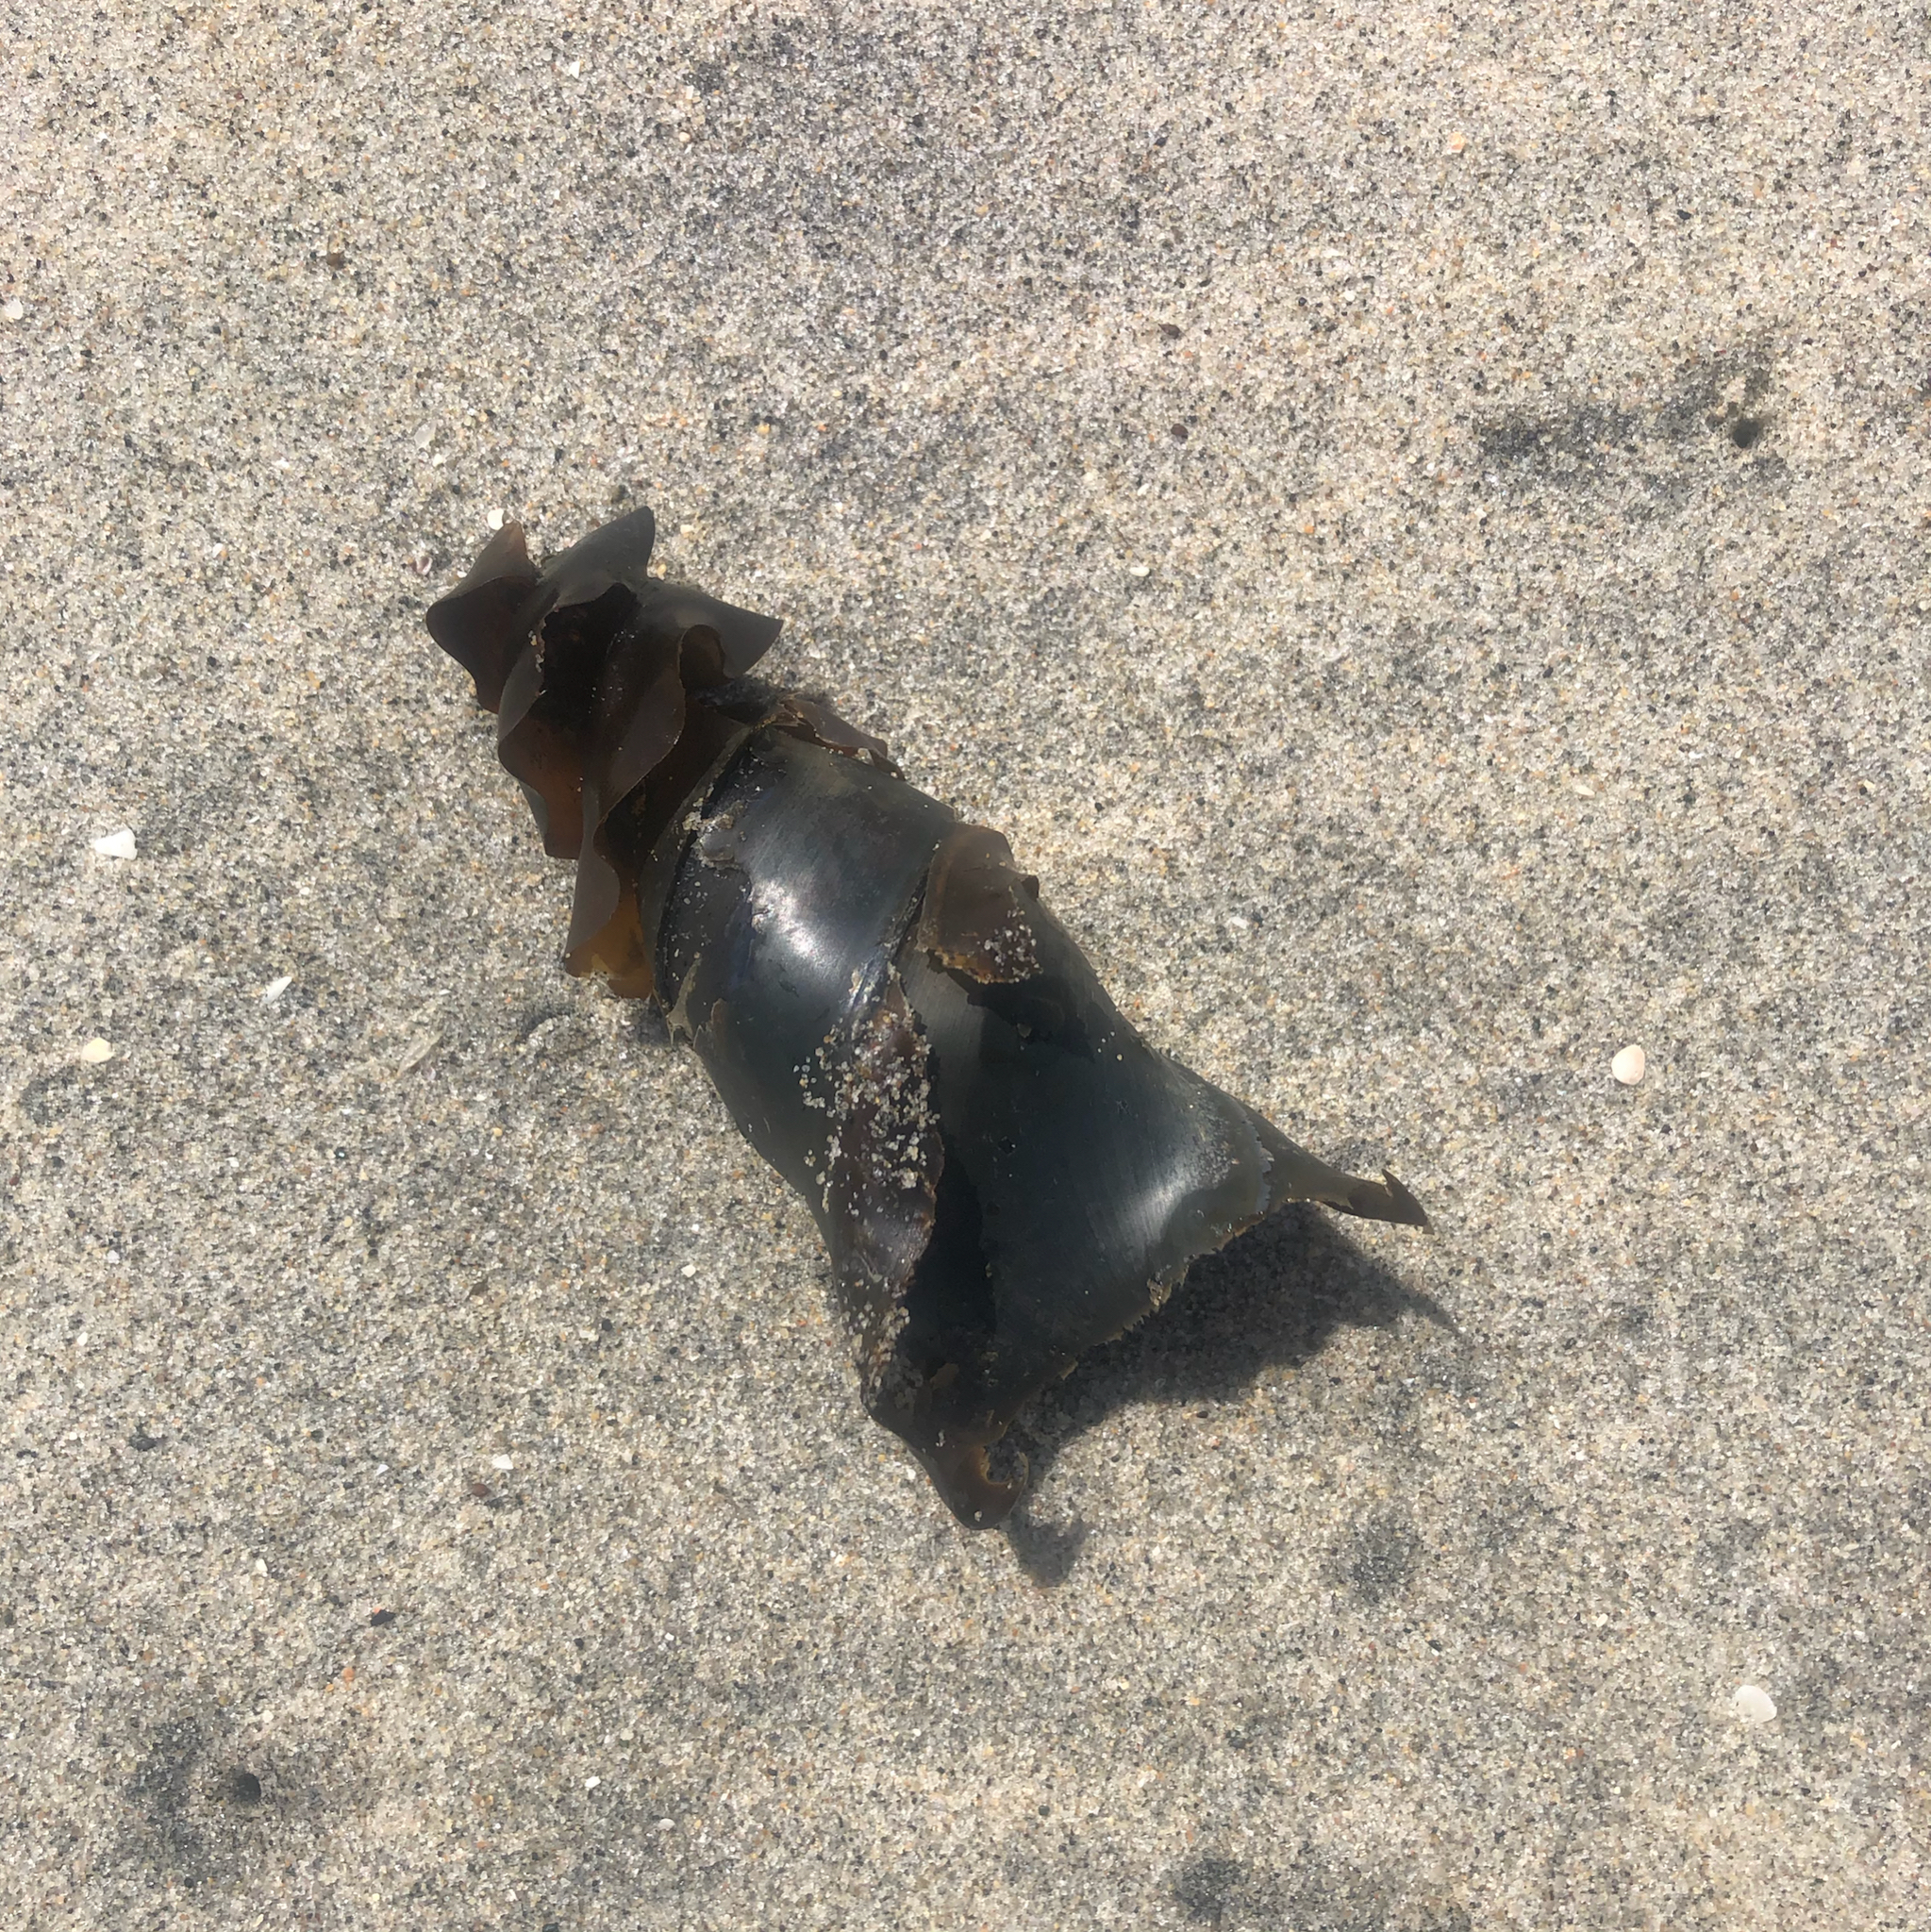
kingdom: Animalia
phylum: Chordata
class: Elasmobranchii
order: Heterodontiformes
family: Heterodontidae
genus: Heterodontus
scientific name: Heterodontus francisci
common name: Horn shark
